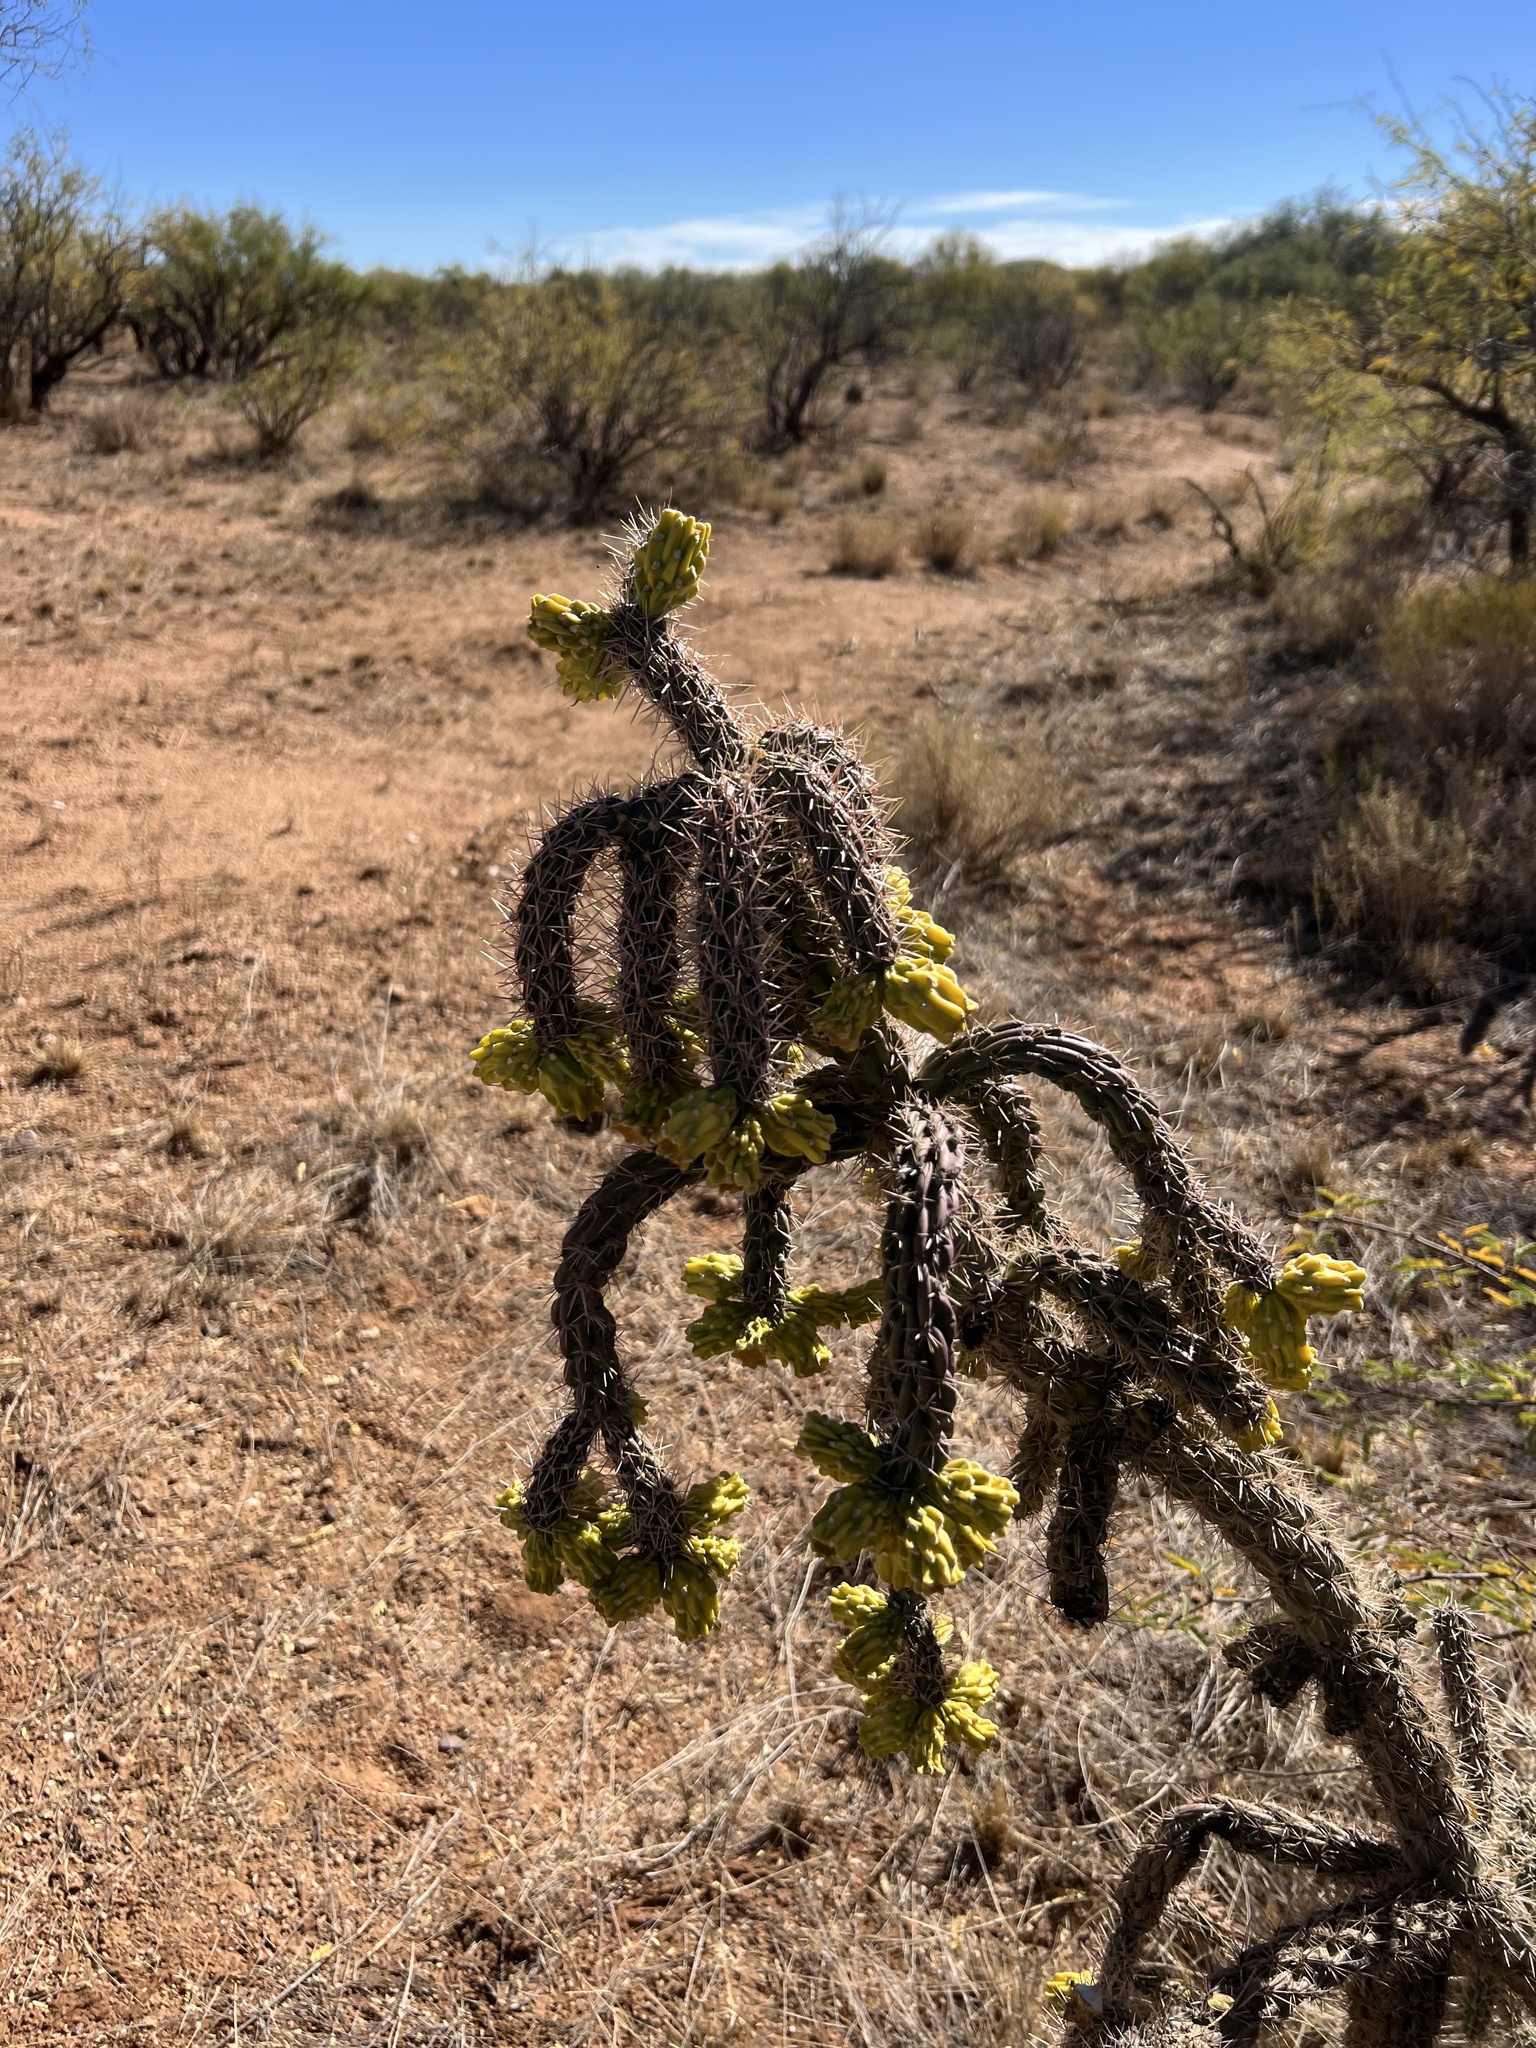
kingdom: Plantae
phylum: Tracheophyta
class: Magnoliopsida
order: Caryophyllales
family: Cactaceae
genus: Cylindropuntia
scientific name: Cylindropuntia imbricata
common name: Candelabrum cactus
